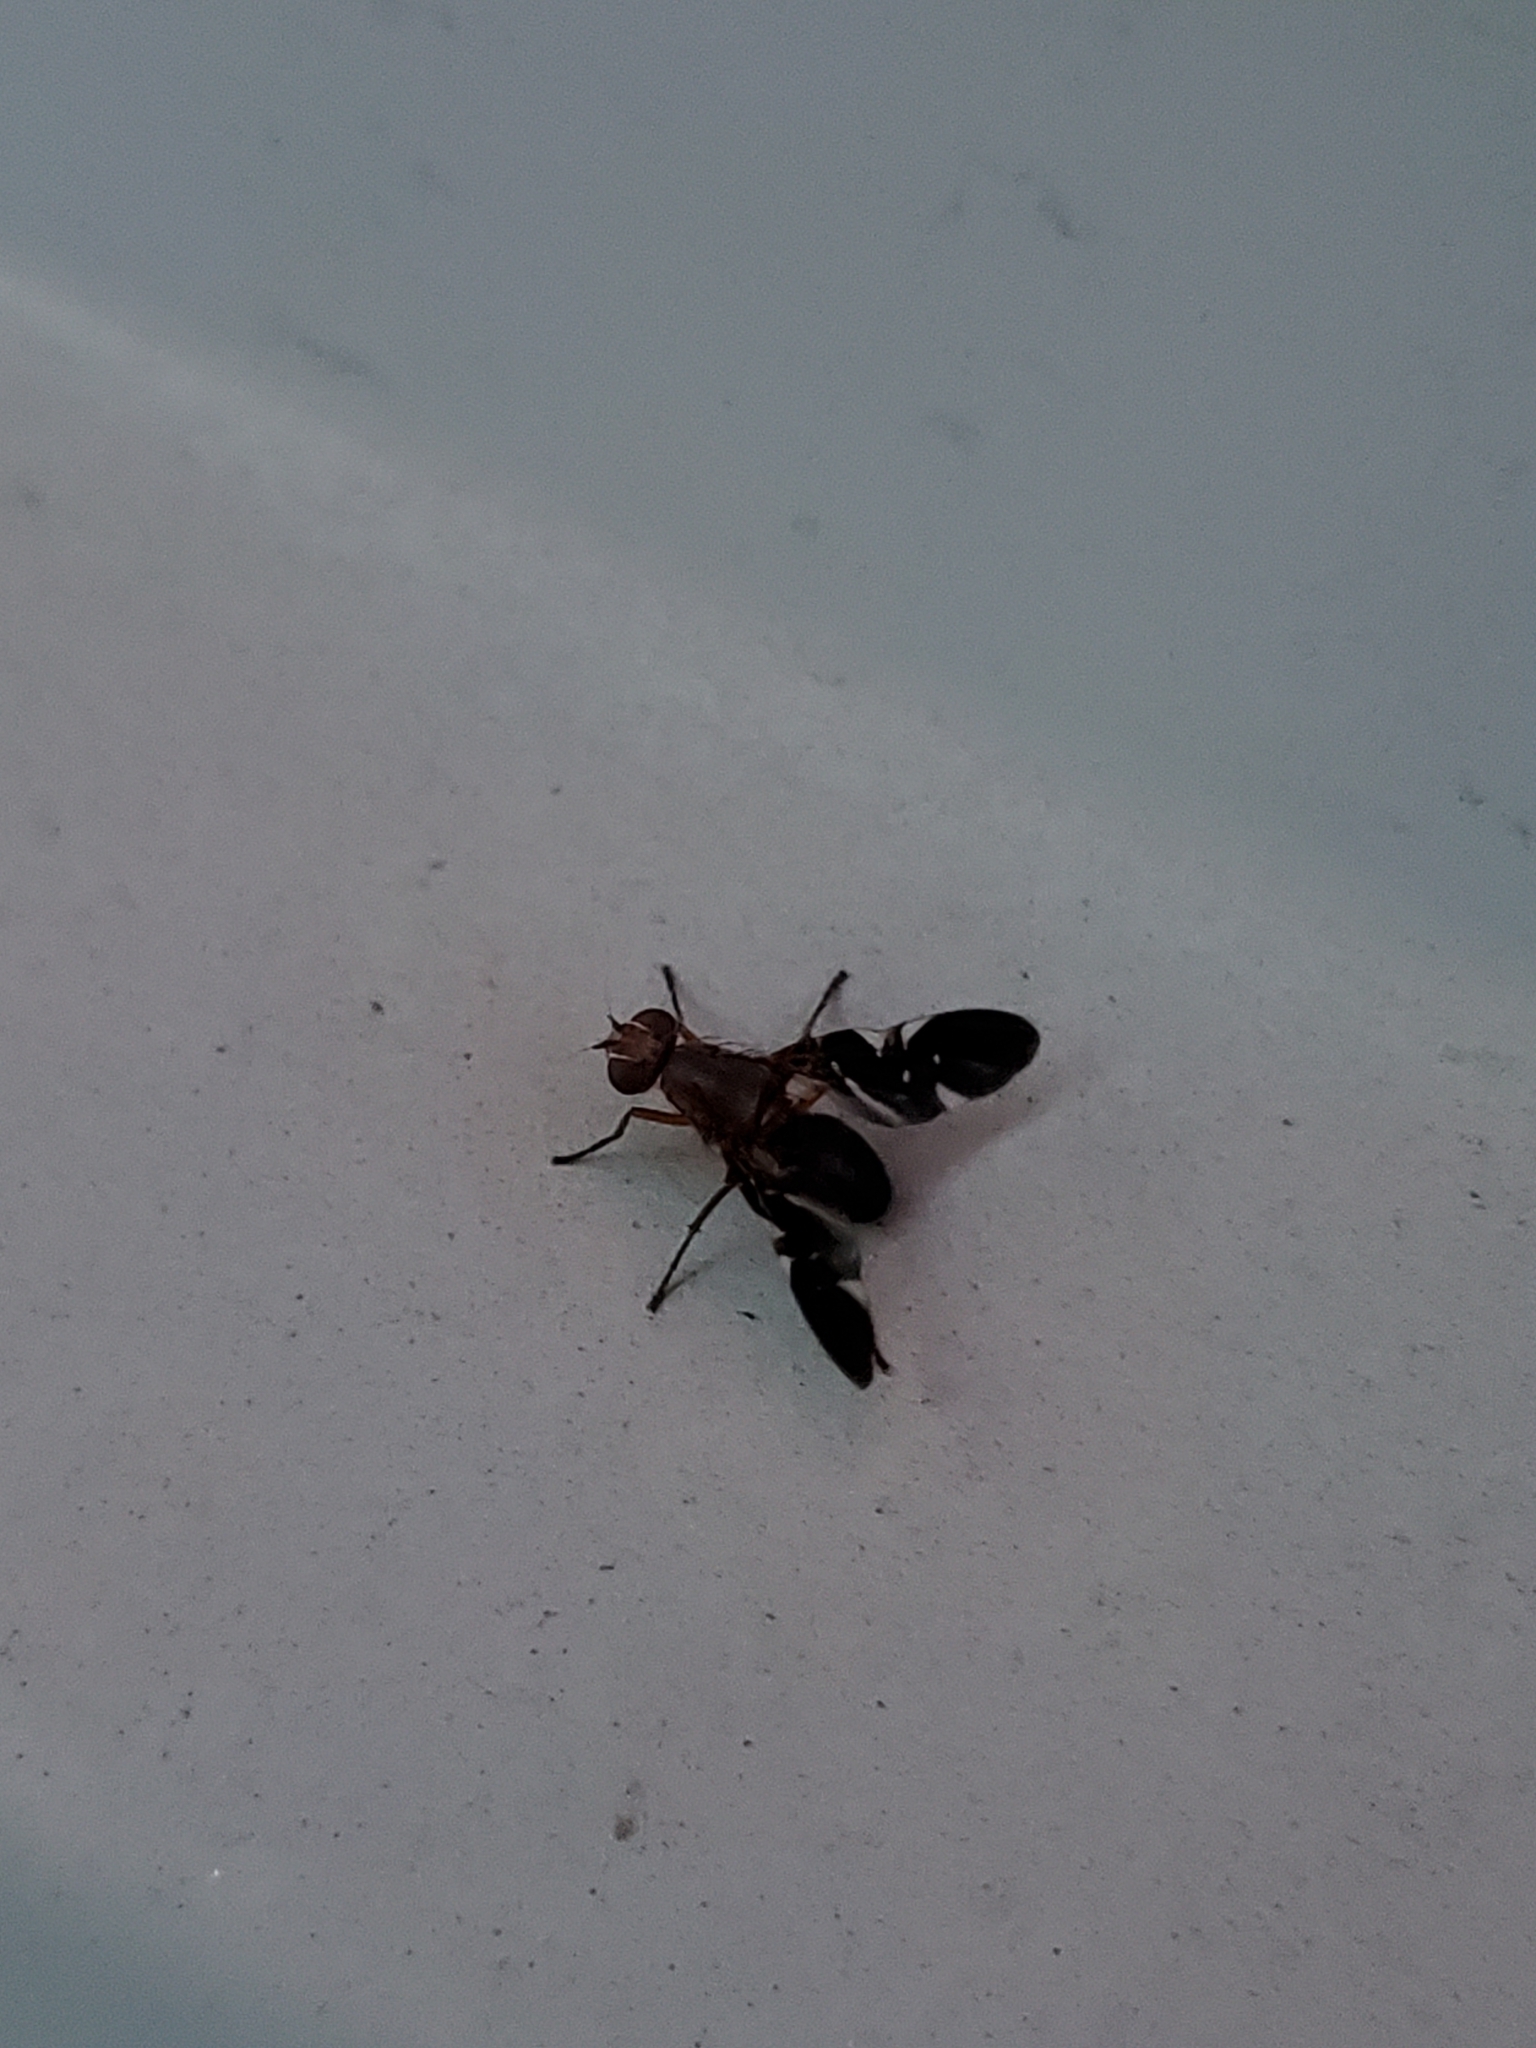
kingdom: Animalia
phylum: Arthropoda
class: Insecta
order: Diptera
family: Ulidiidae
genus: Delphinia
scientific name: Delphinia picta
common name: Common picture-winged fly
